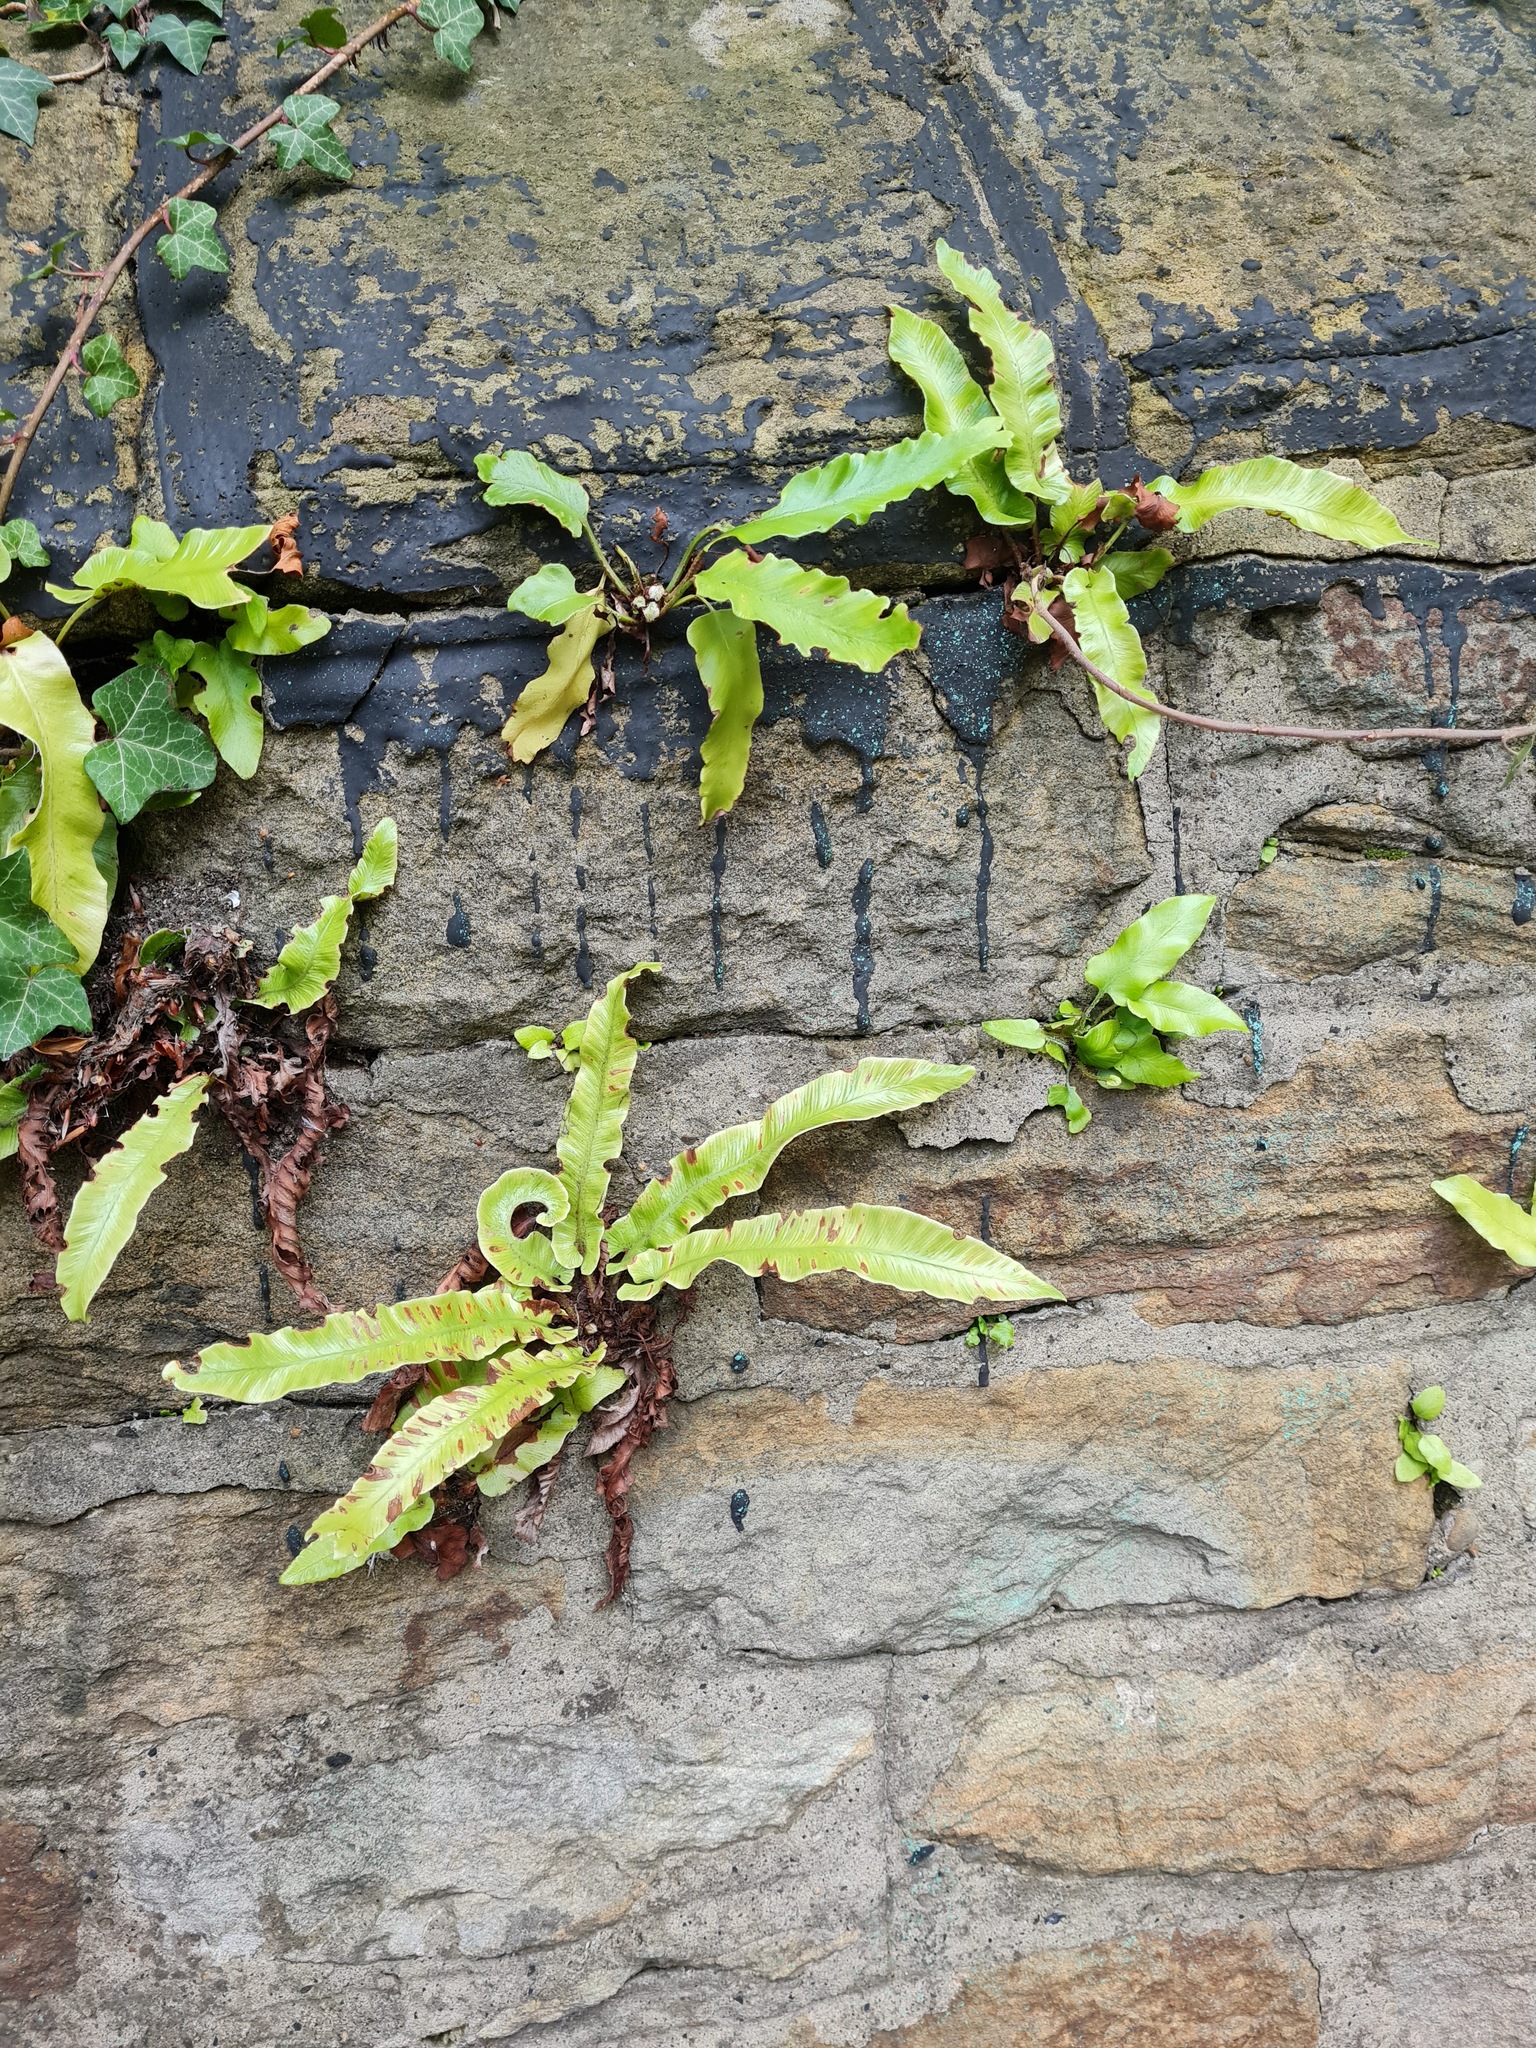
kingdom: Plantae
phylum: Tracheophyta
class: Polypodiopsida
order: Polypodiales
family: Aspleniaceae
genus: Asplenium
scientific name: Asplenium scolopendrium
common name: Hart's-tongue fern
